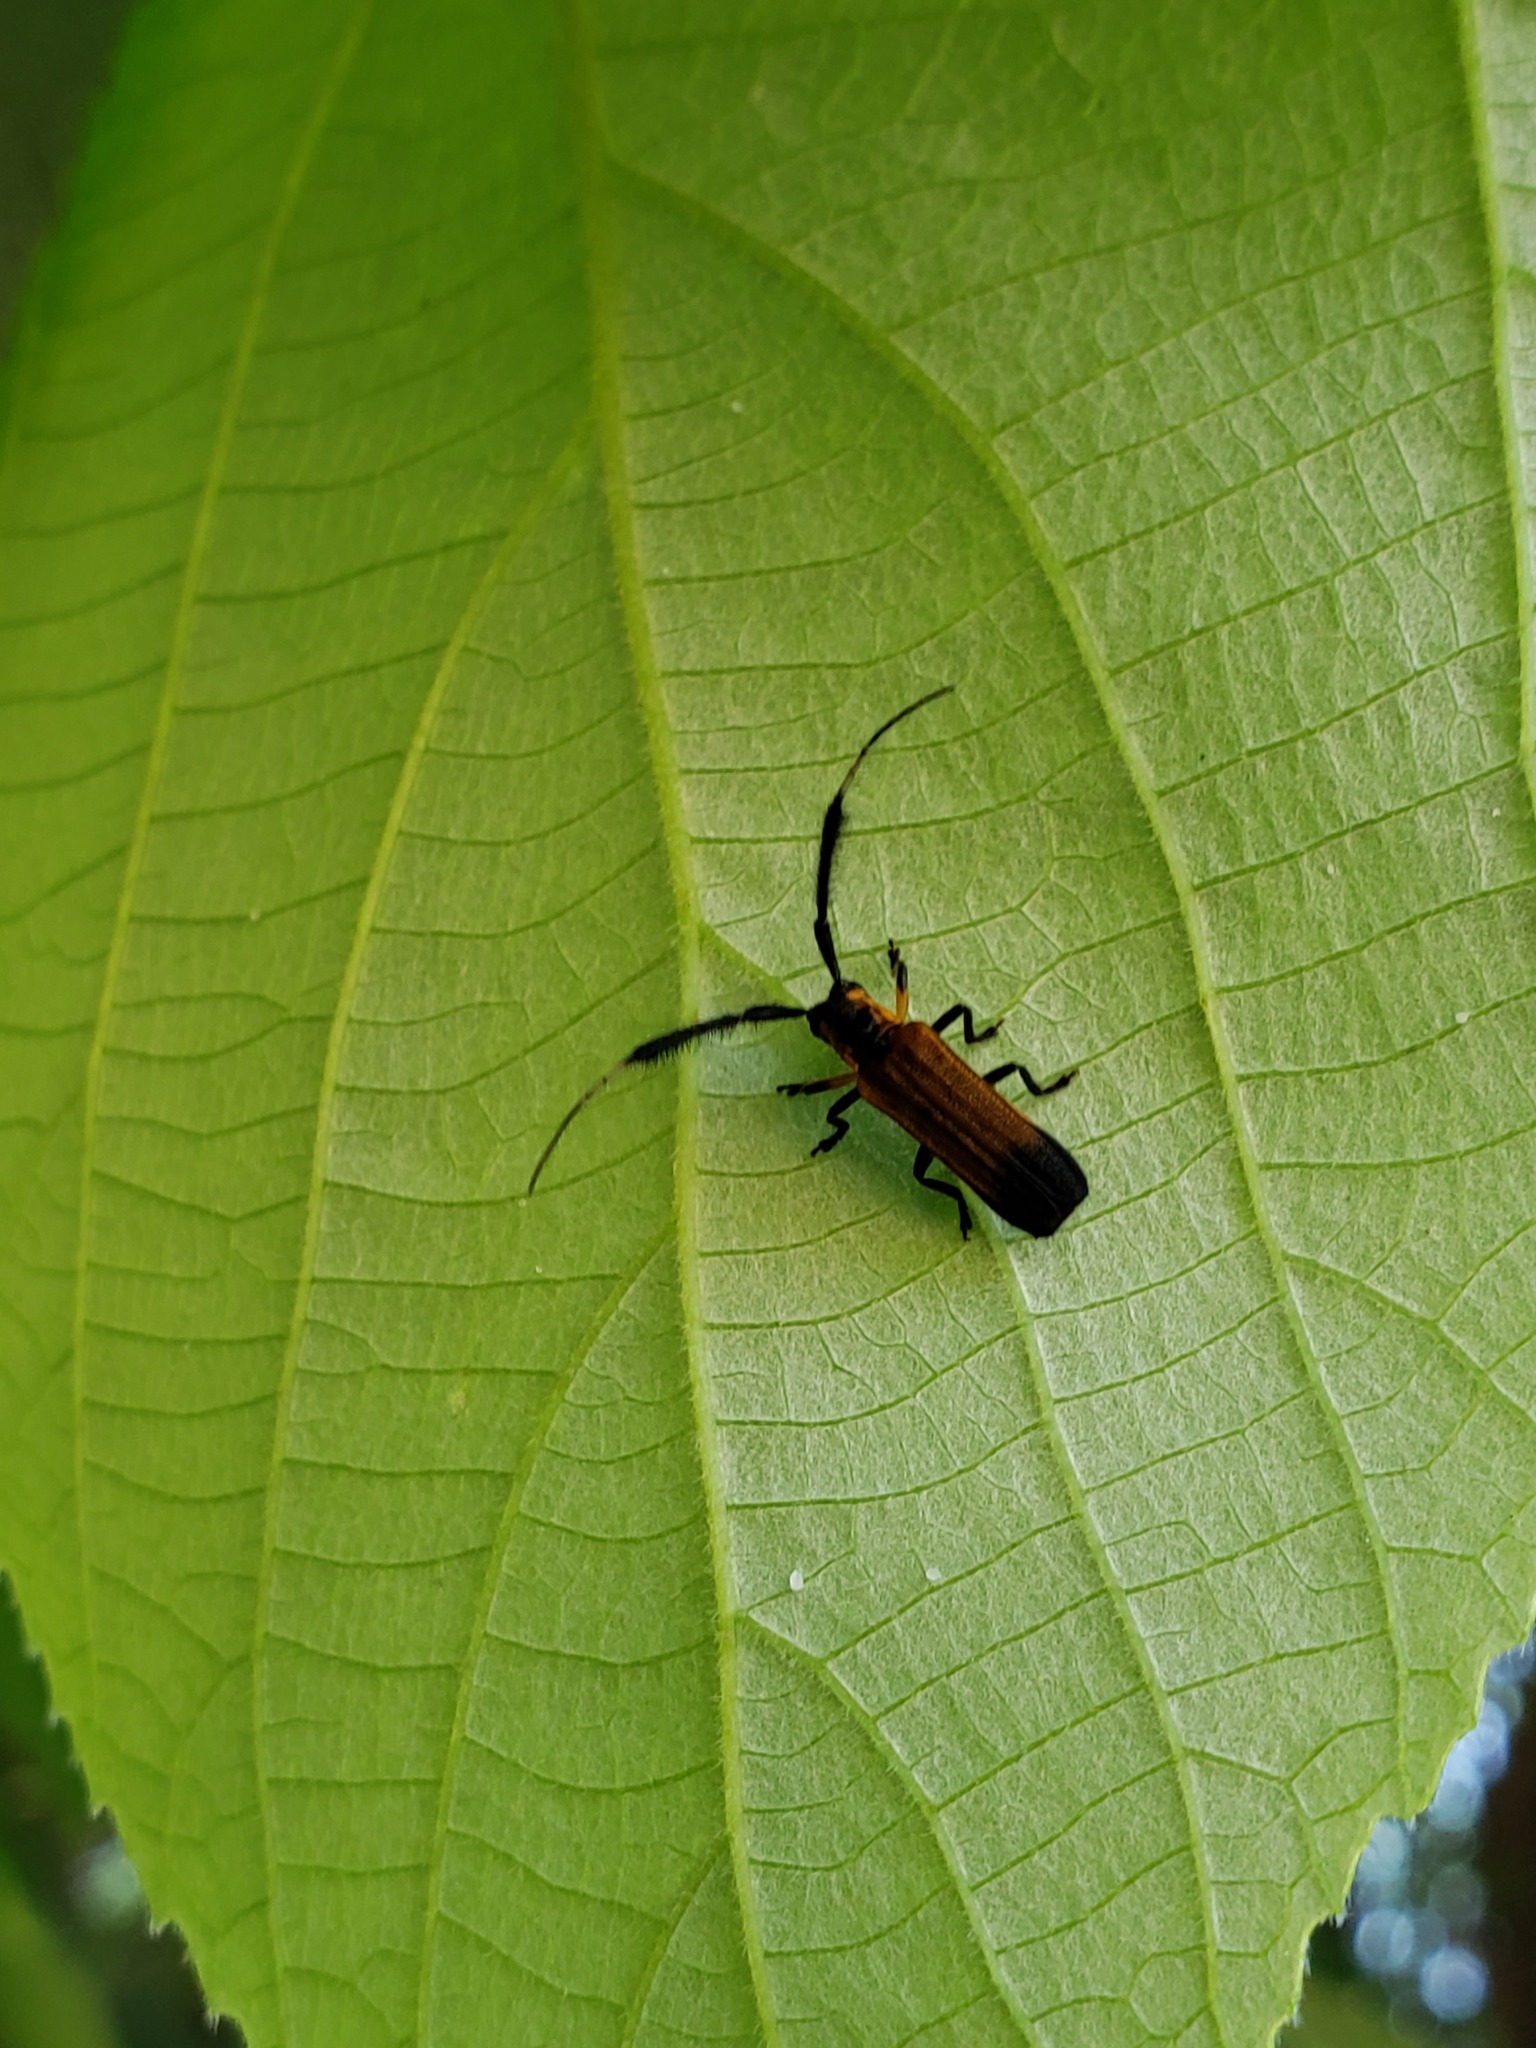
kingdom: Animalia
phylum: Arthropoda
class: Insecta
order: Coleoptera
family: Cerambycidae
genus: Malacoscylus
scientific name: Malacoscylus gonostigma
